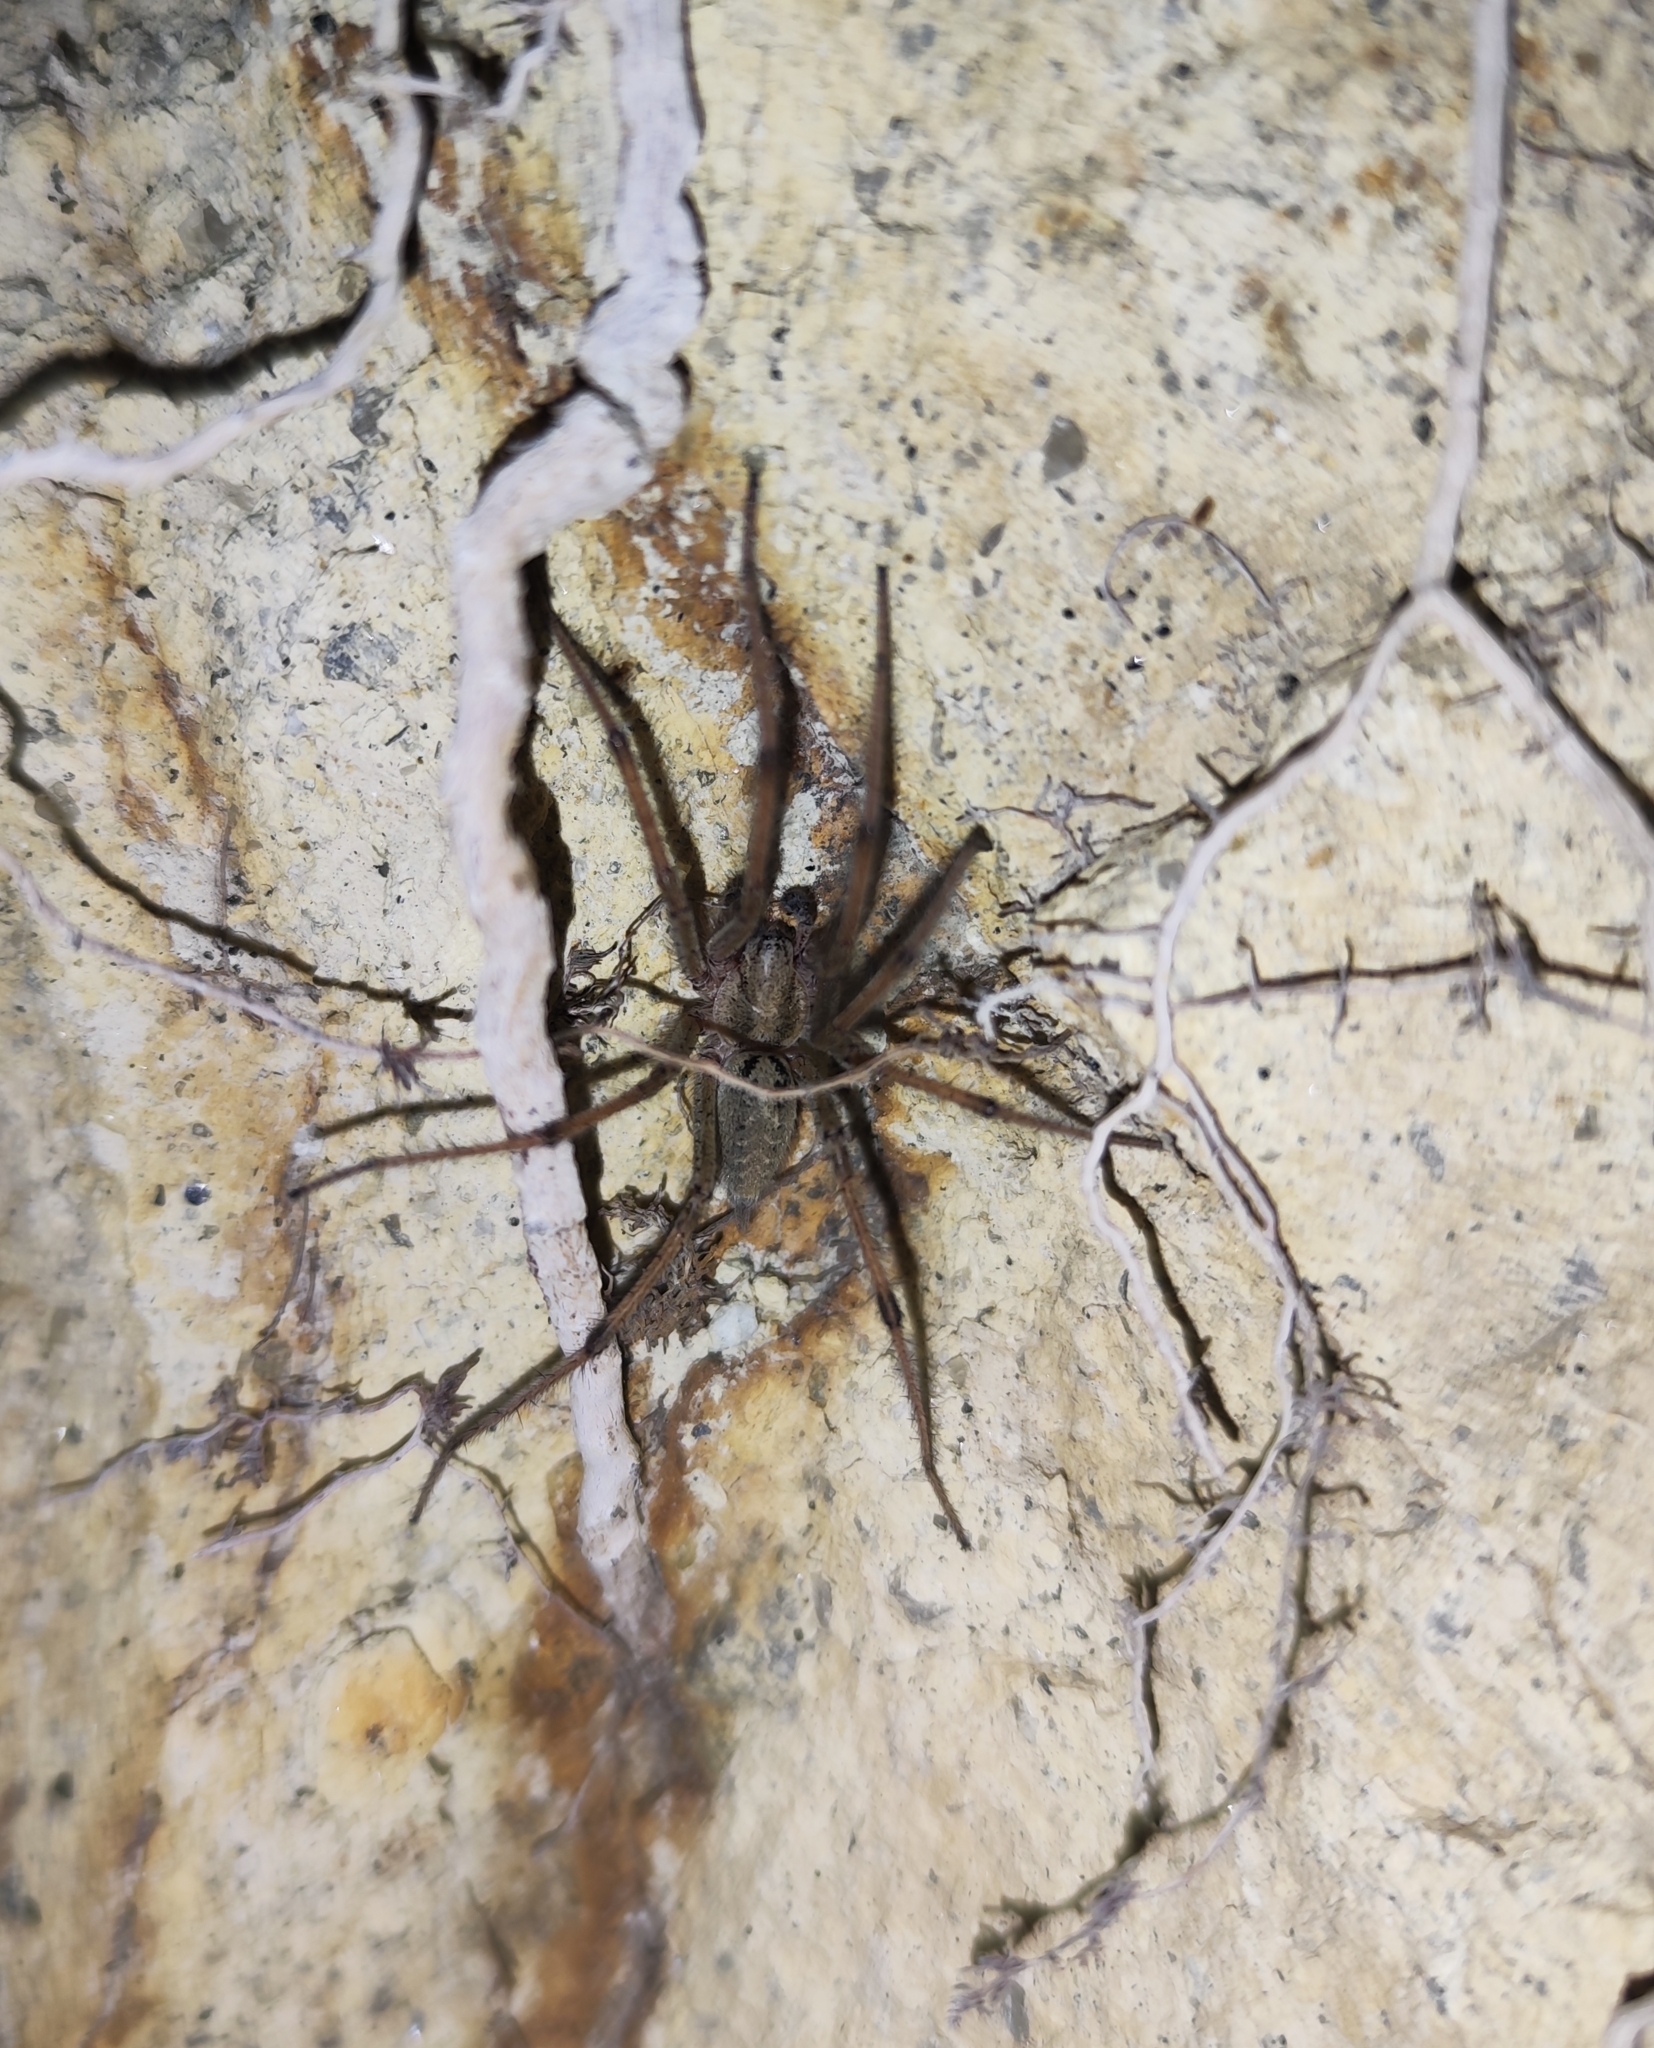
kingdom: Animalia
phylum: Arthropoda
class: Arachnida
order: Araneae
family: Agelenidae
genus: Agelena
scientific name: Agelena
